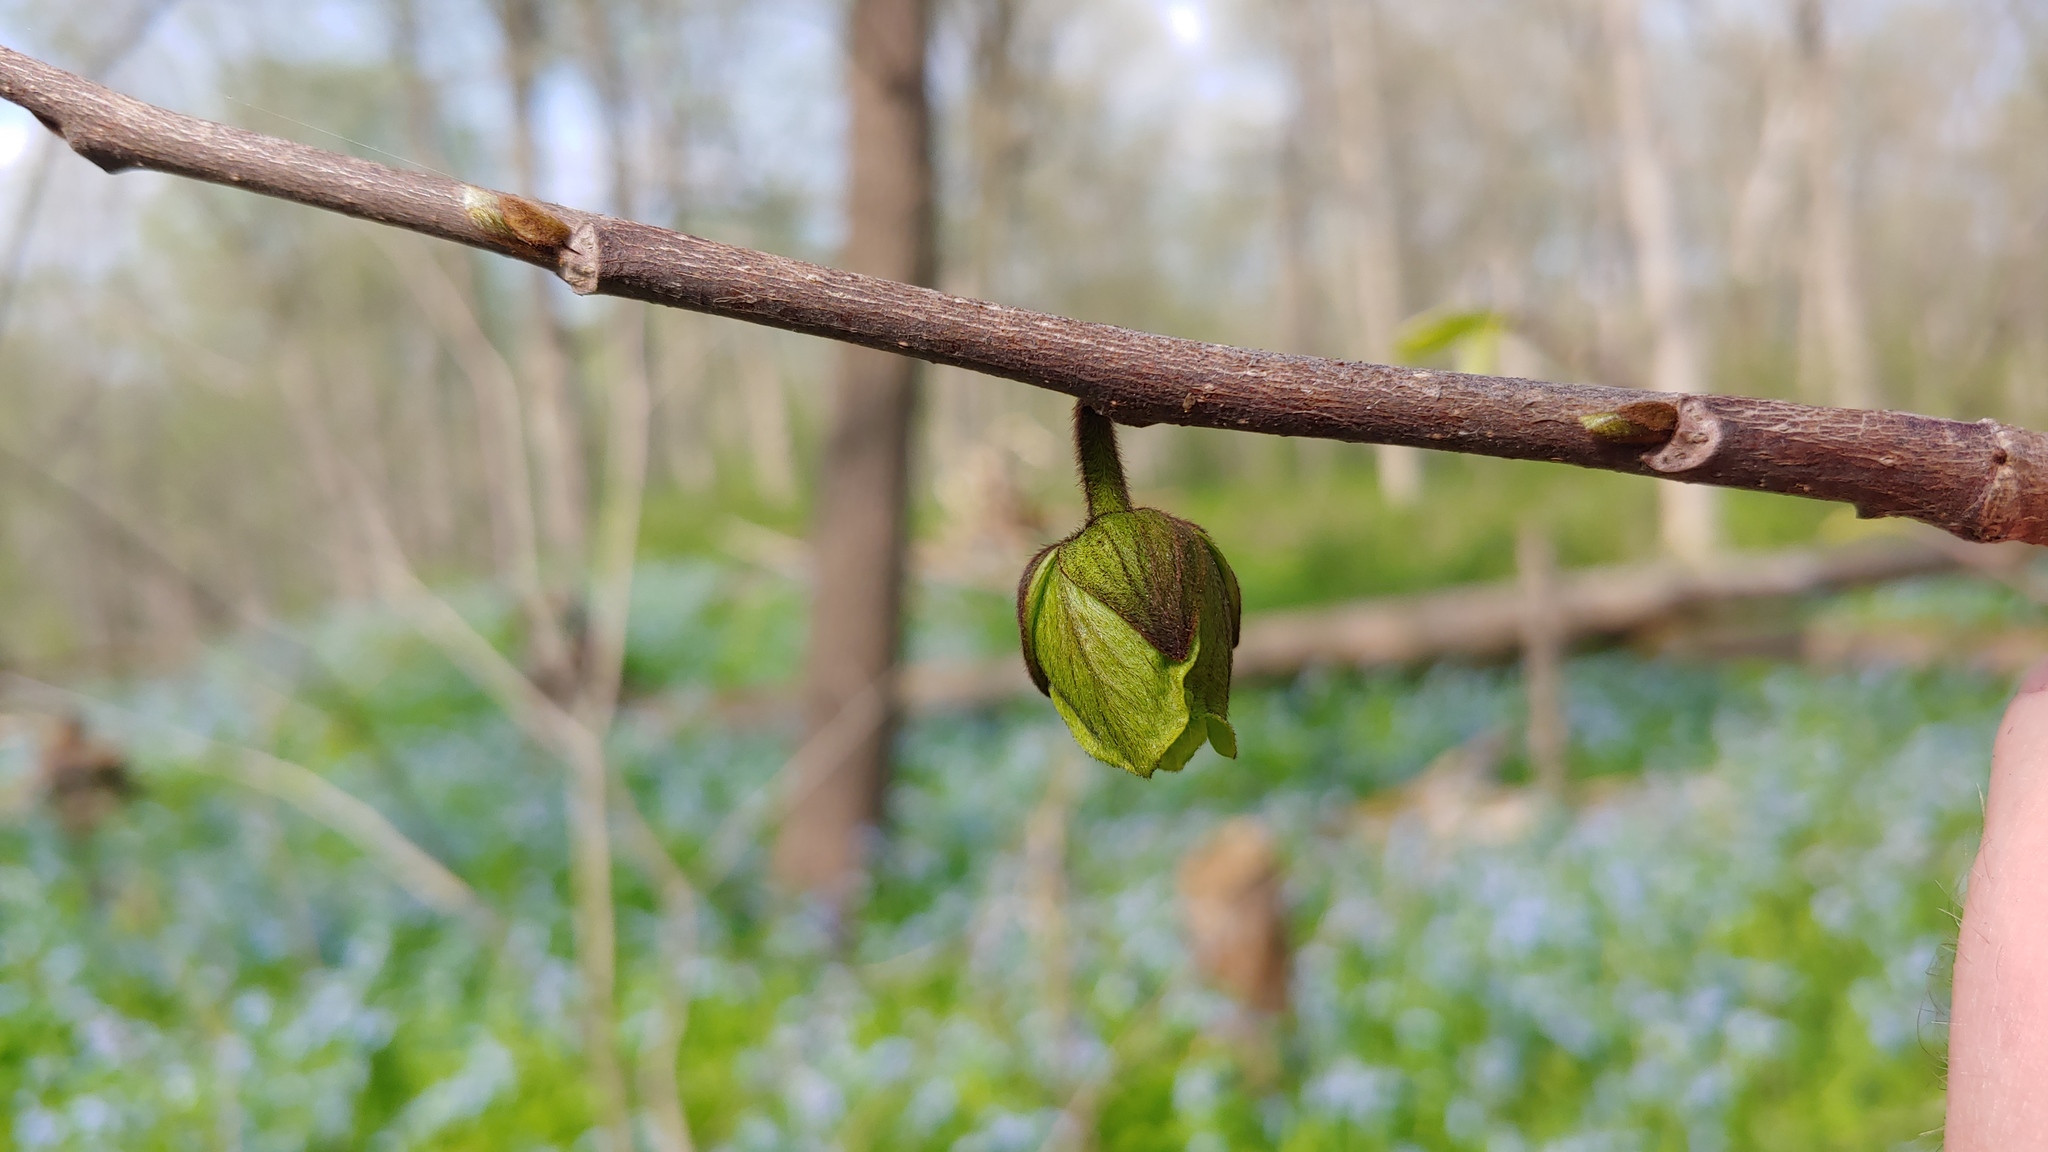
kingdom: Plantae
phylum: Tracheophyta
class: Magnoliopsida
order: Magnoliales
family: Annonaceae
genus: Asimina
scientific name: Asimina triloba
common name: Dog-banana
